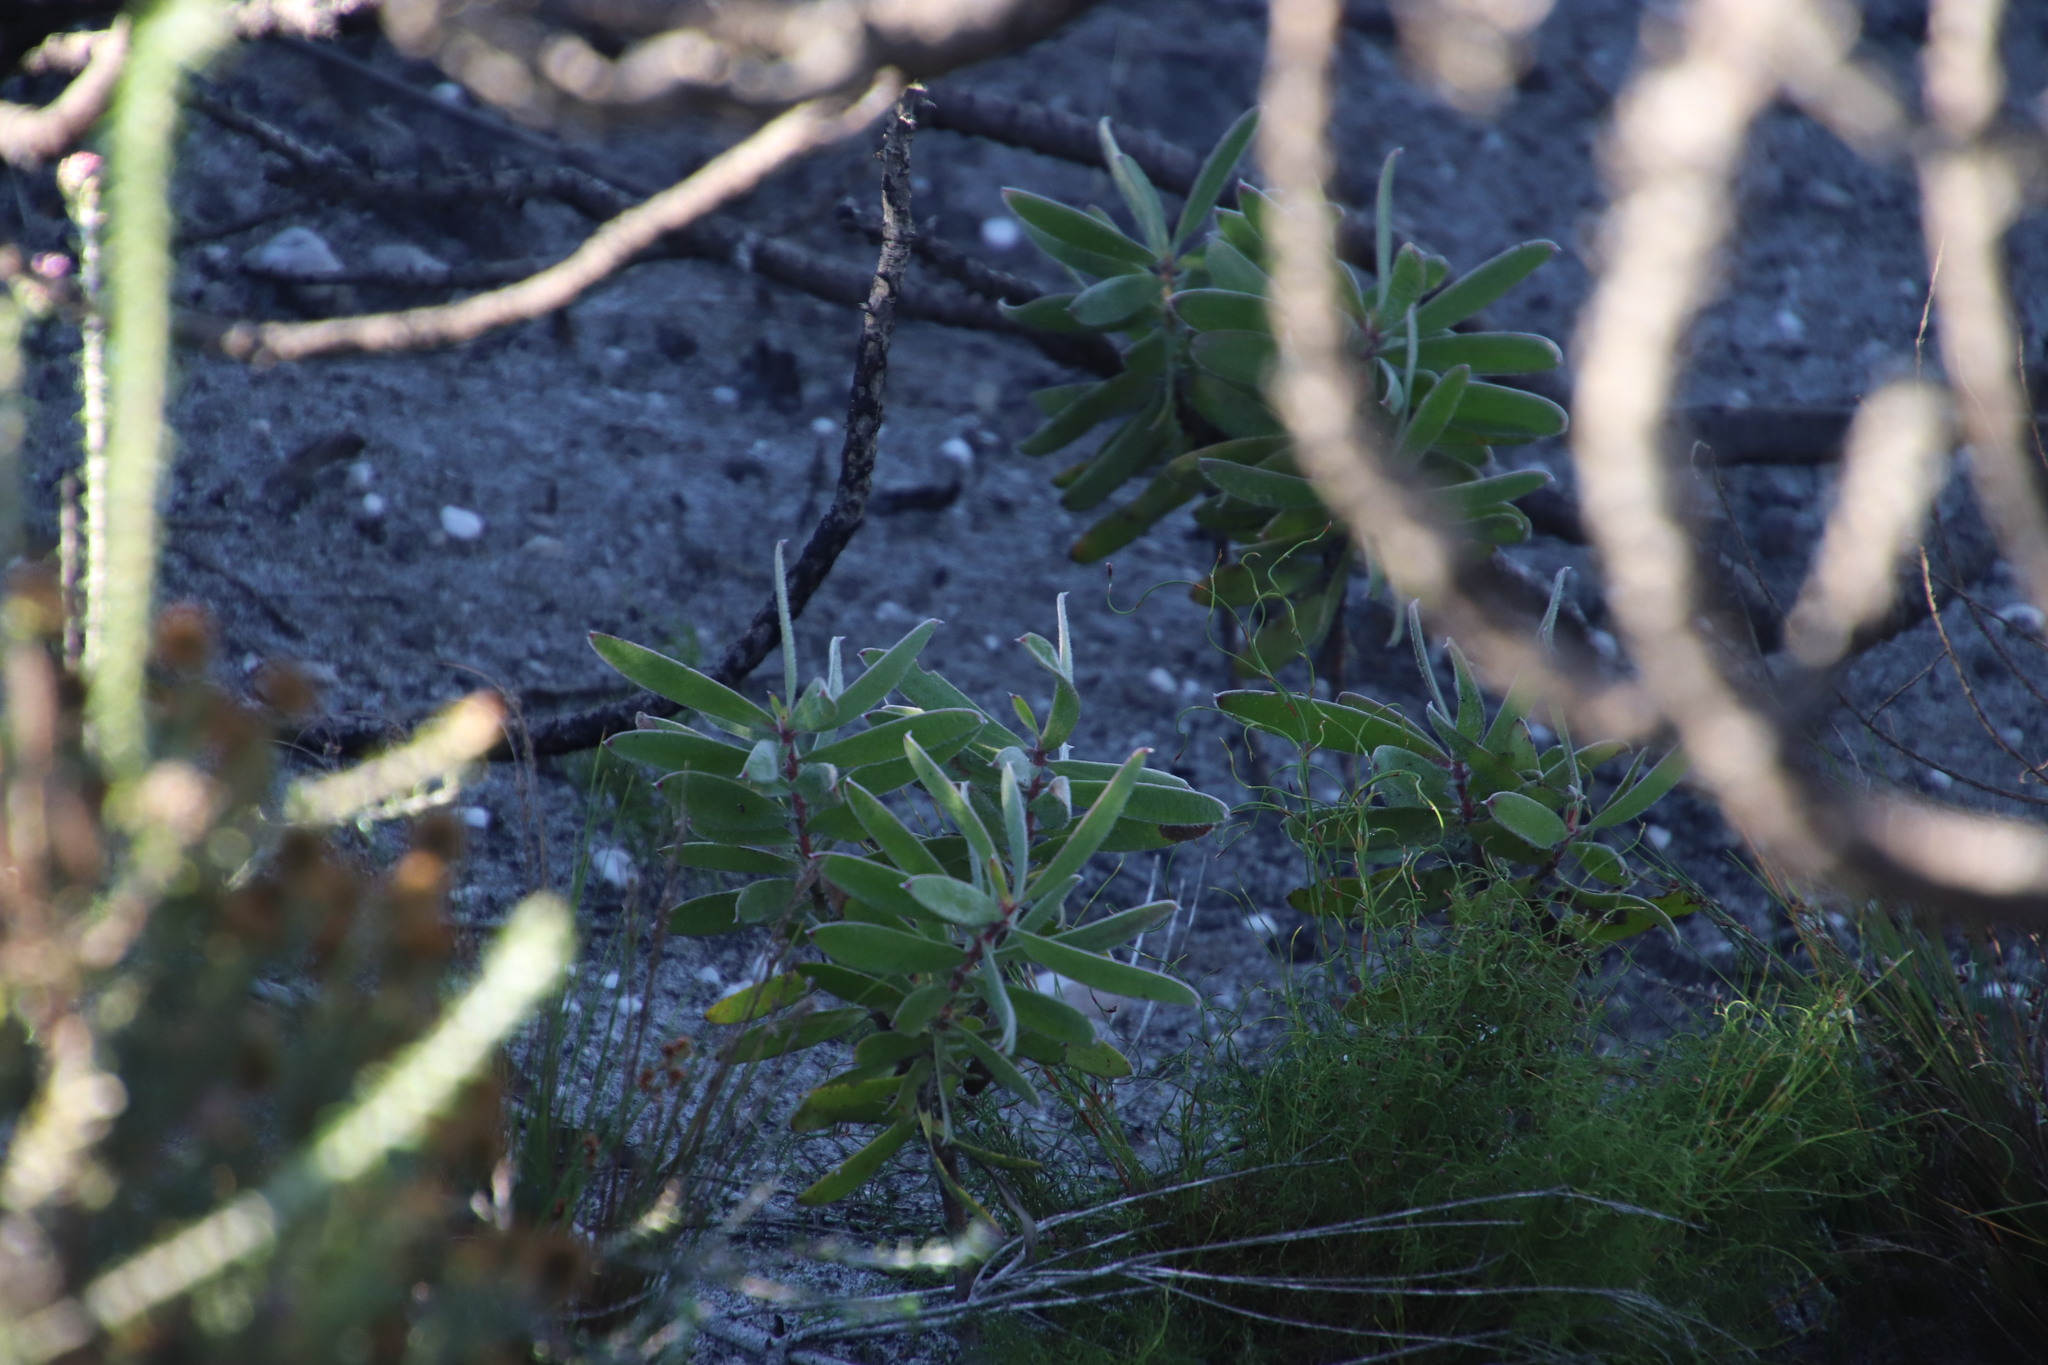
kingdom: Plantae
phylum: Tracheophyta
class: Magnoliopsida
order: Proteales
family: Proteaceae
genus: Leucadendron
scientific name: Leucadendron laureolum
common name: Golden sunshinebush
